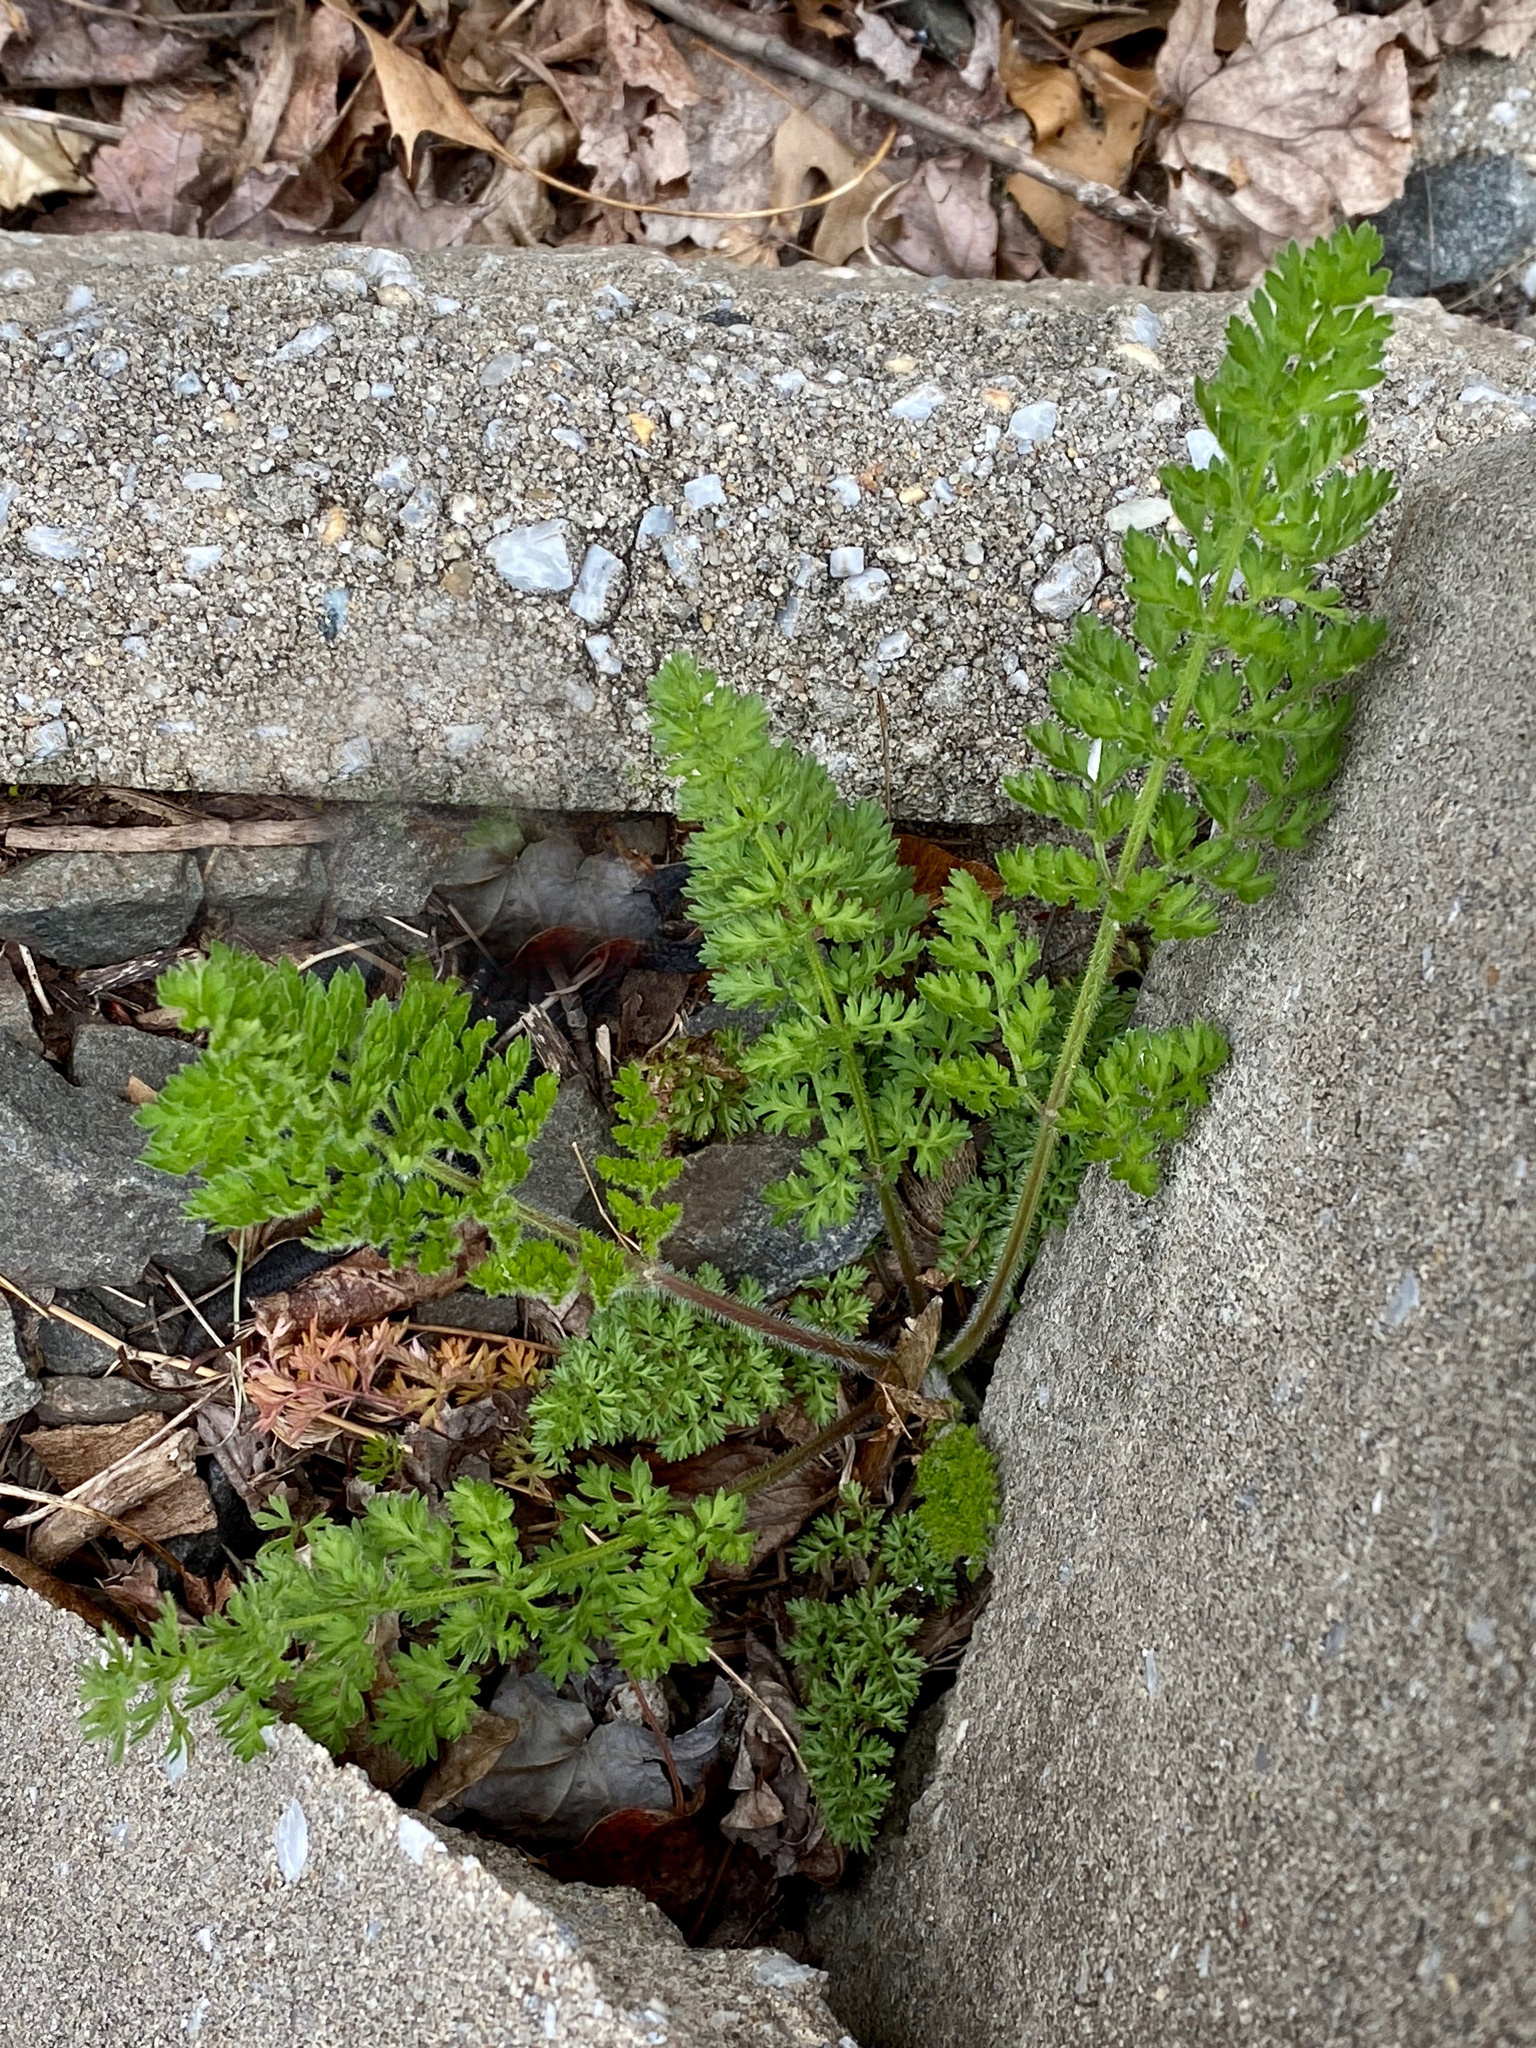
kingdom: Plantae
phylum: Tracheophyta
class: Magnoliopsida
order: Apiales
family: Apiaceae
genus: Daucus
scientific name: Daucus carota
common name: Wild carrot
